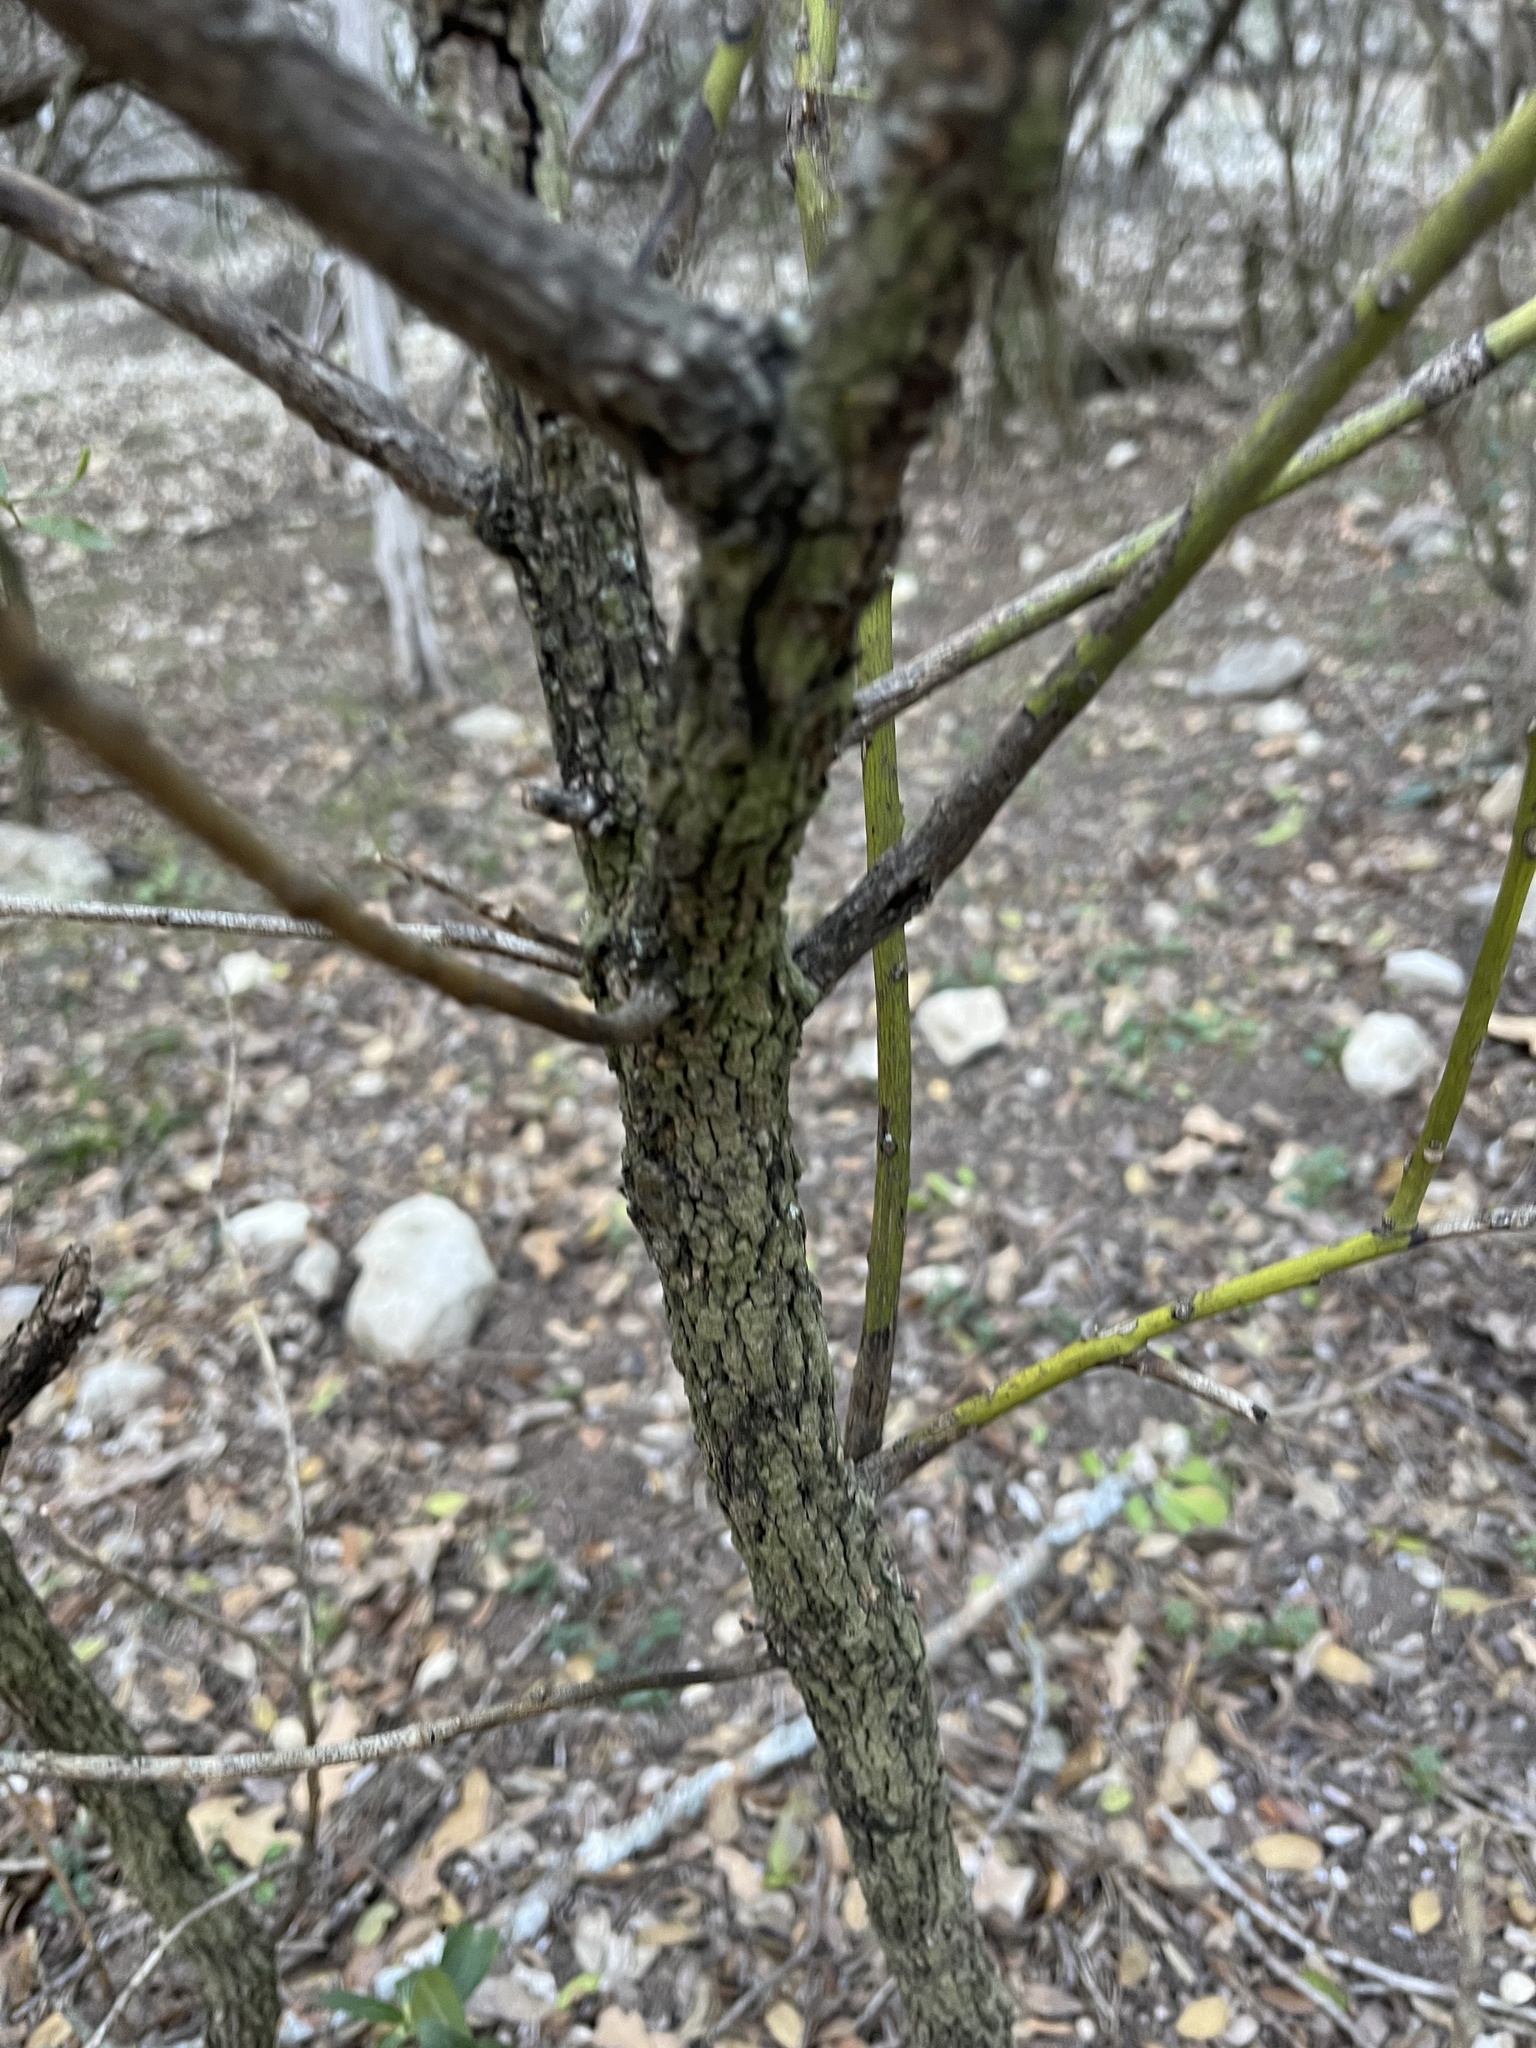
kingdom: Plantae
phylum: Tracheophyta
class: Magnoliopsida
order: Fabales
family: Fabaceae
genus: Dermatophyllum
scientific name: Dermatophyllum secundiflorum
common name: Texas-mountain-laurel
